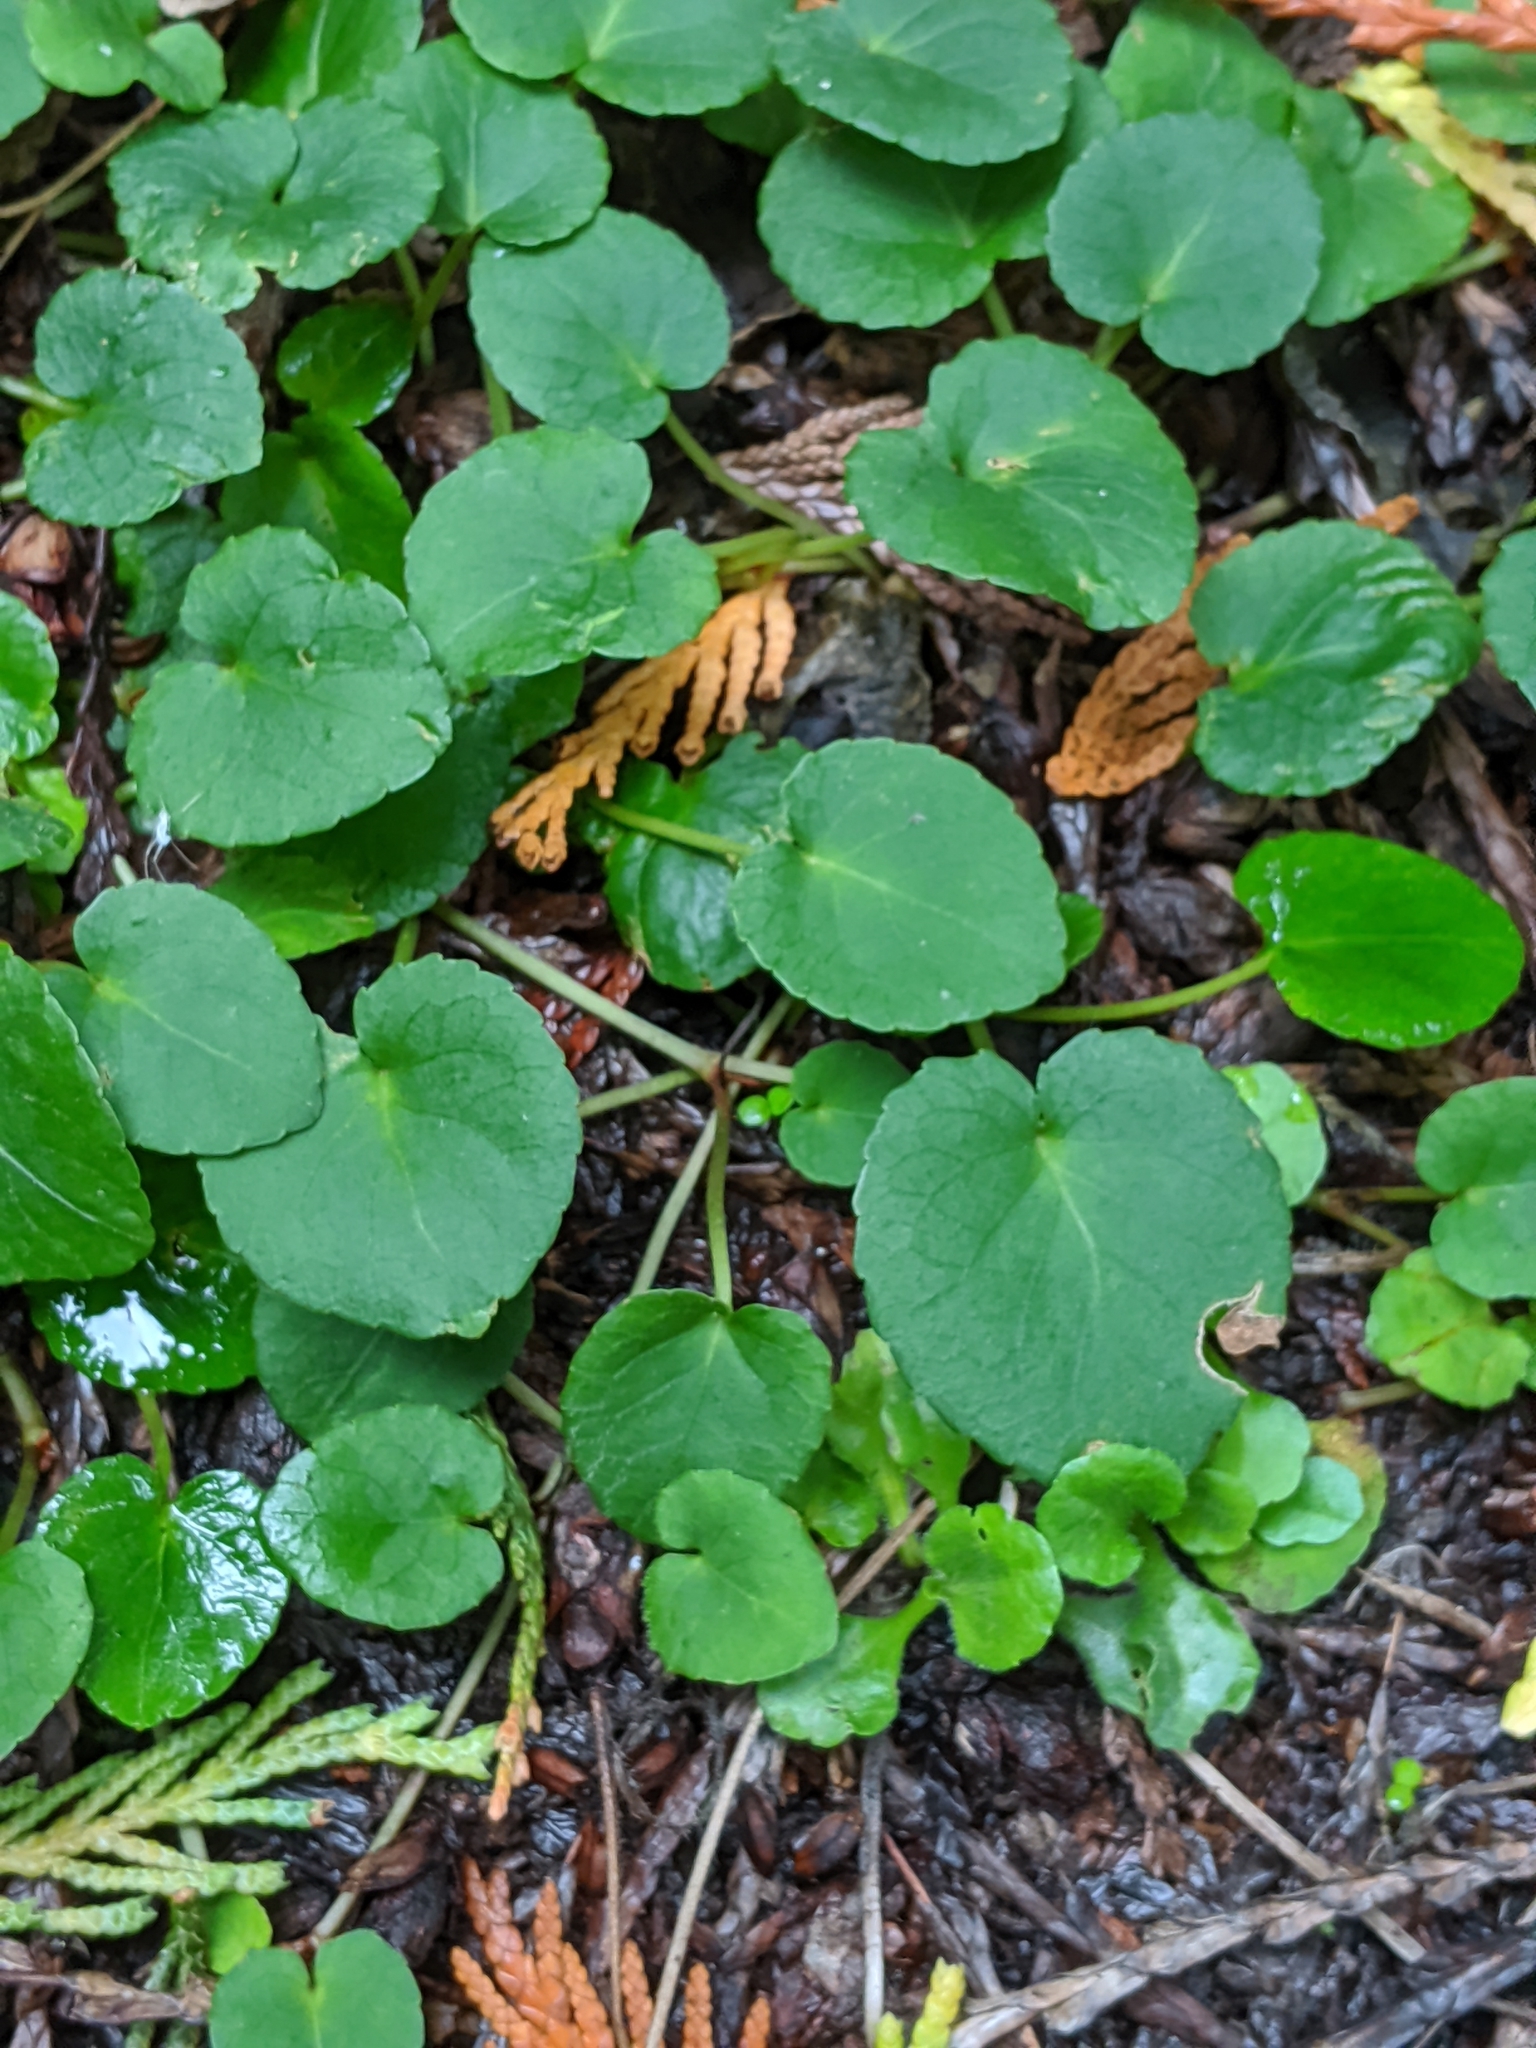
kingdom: Plantae
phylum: Tracheophyta
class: Magnoliopsida
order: Malpighiales
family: Violaceae
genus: Viola
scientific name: Viola sempervirens
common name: Evergreen violet
